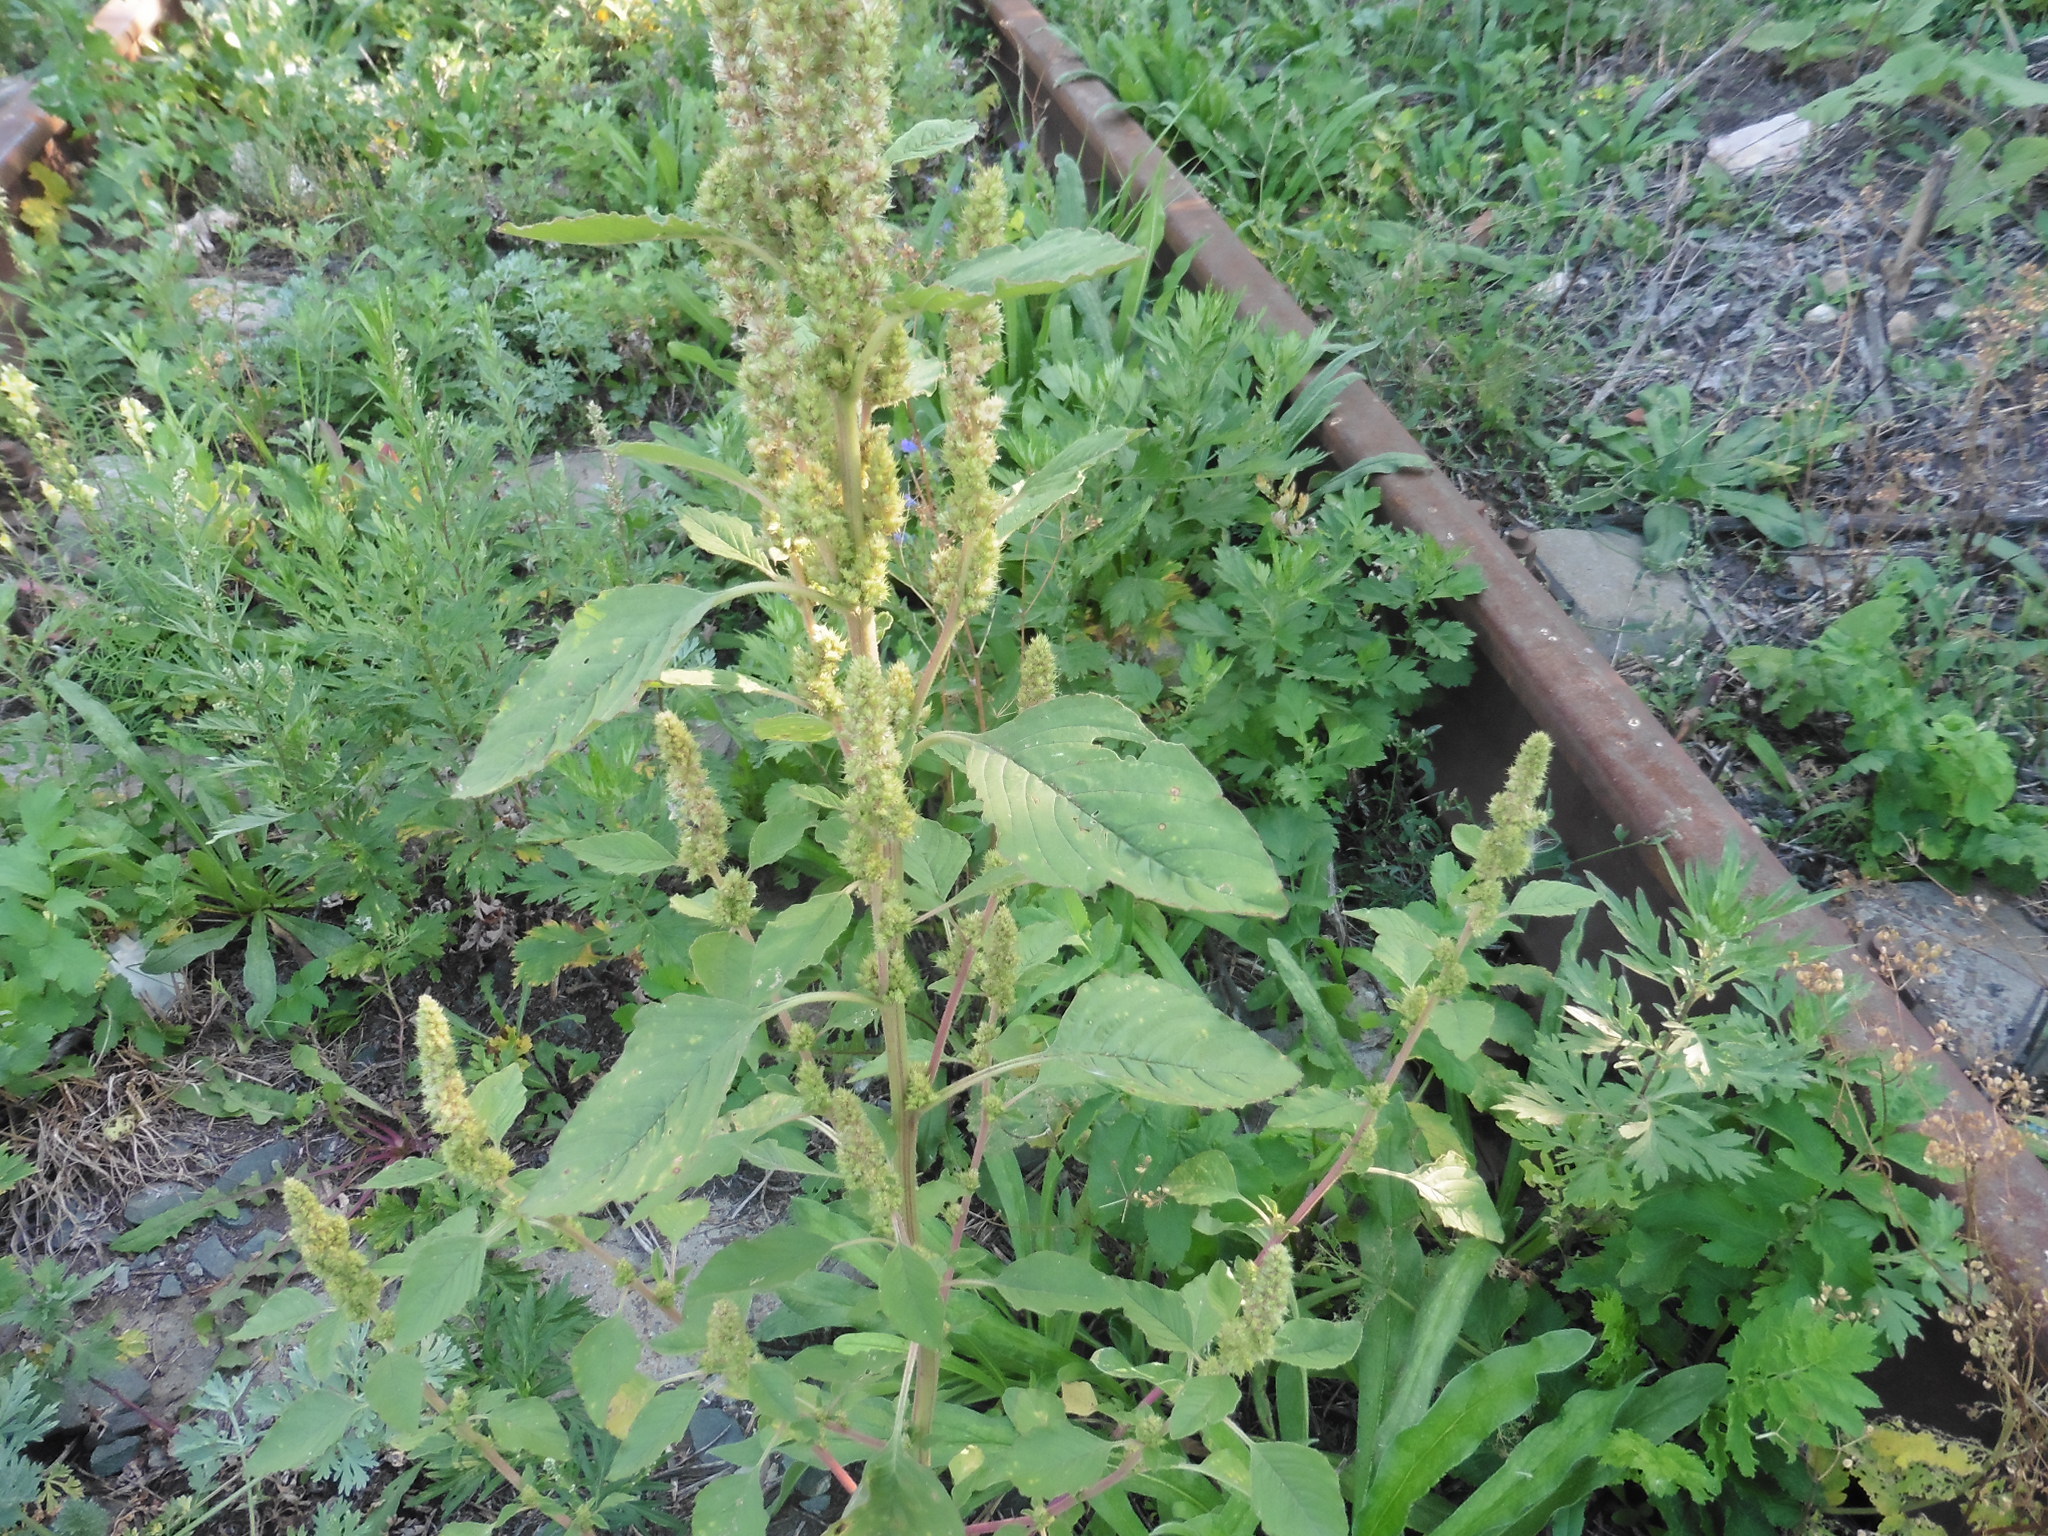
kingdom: Plantae
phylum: Tracheophyta
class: Magnoliopsida
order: Caryophyllales
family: Amaranthaceae
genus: Amaranthus
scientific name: Amaranthus retroflexus
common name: Redroot amaranth
